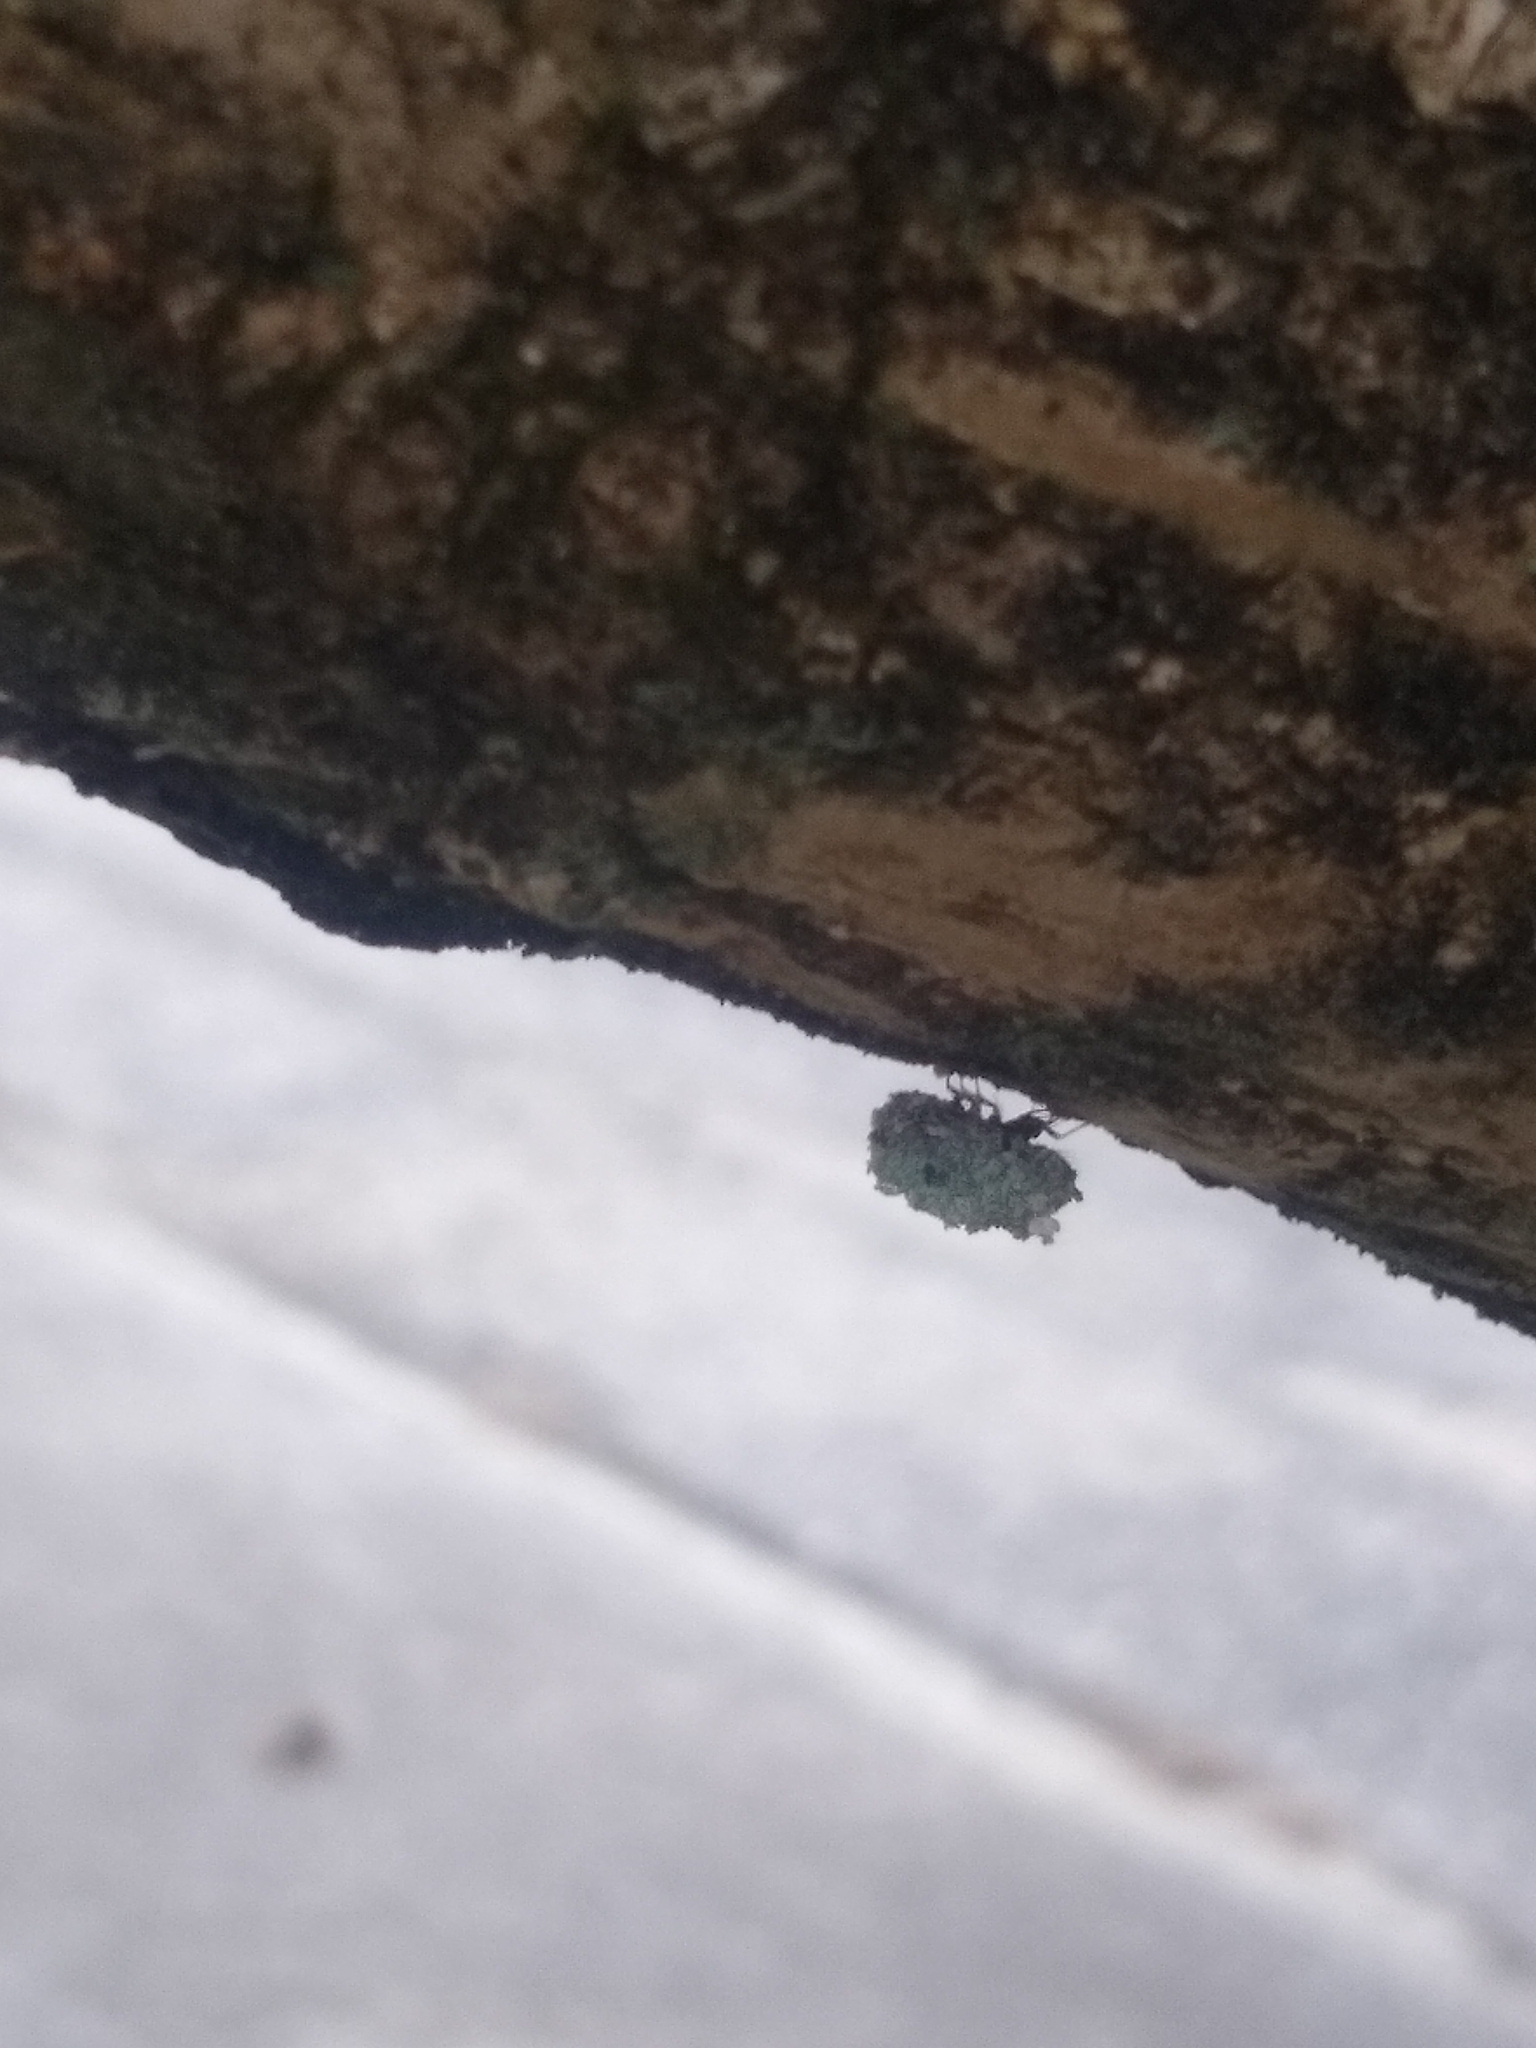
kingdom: Animalia
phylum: Arthropoda
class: Insecta
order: Neuroptera
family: Chrysopidae
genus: Leucochrysa
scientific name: Leucochrysa pavida
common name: Lichen-carrying green lacewing
